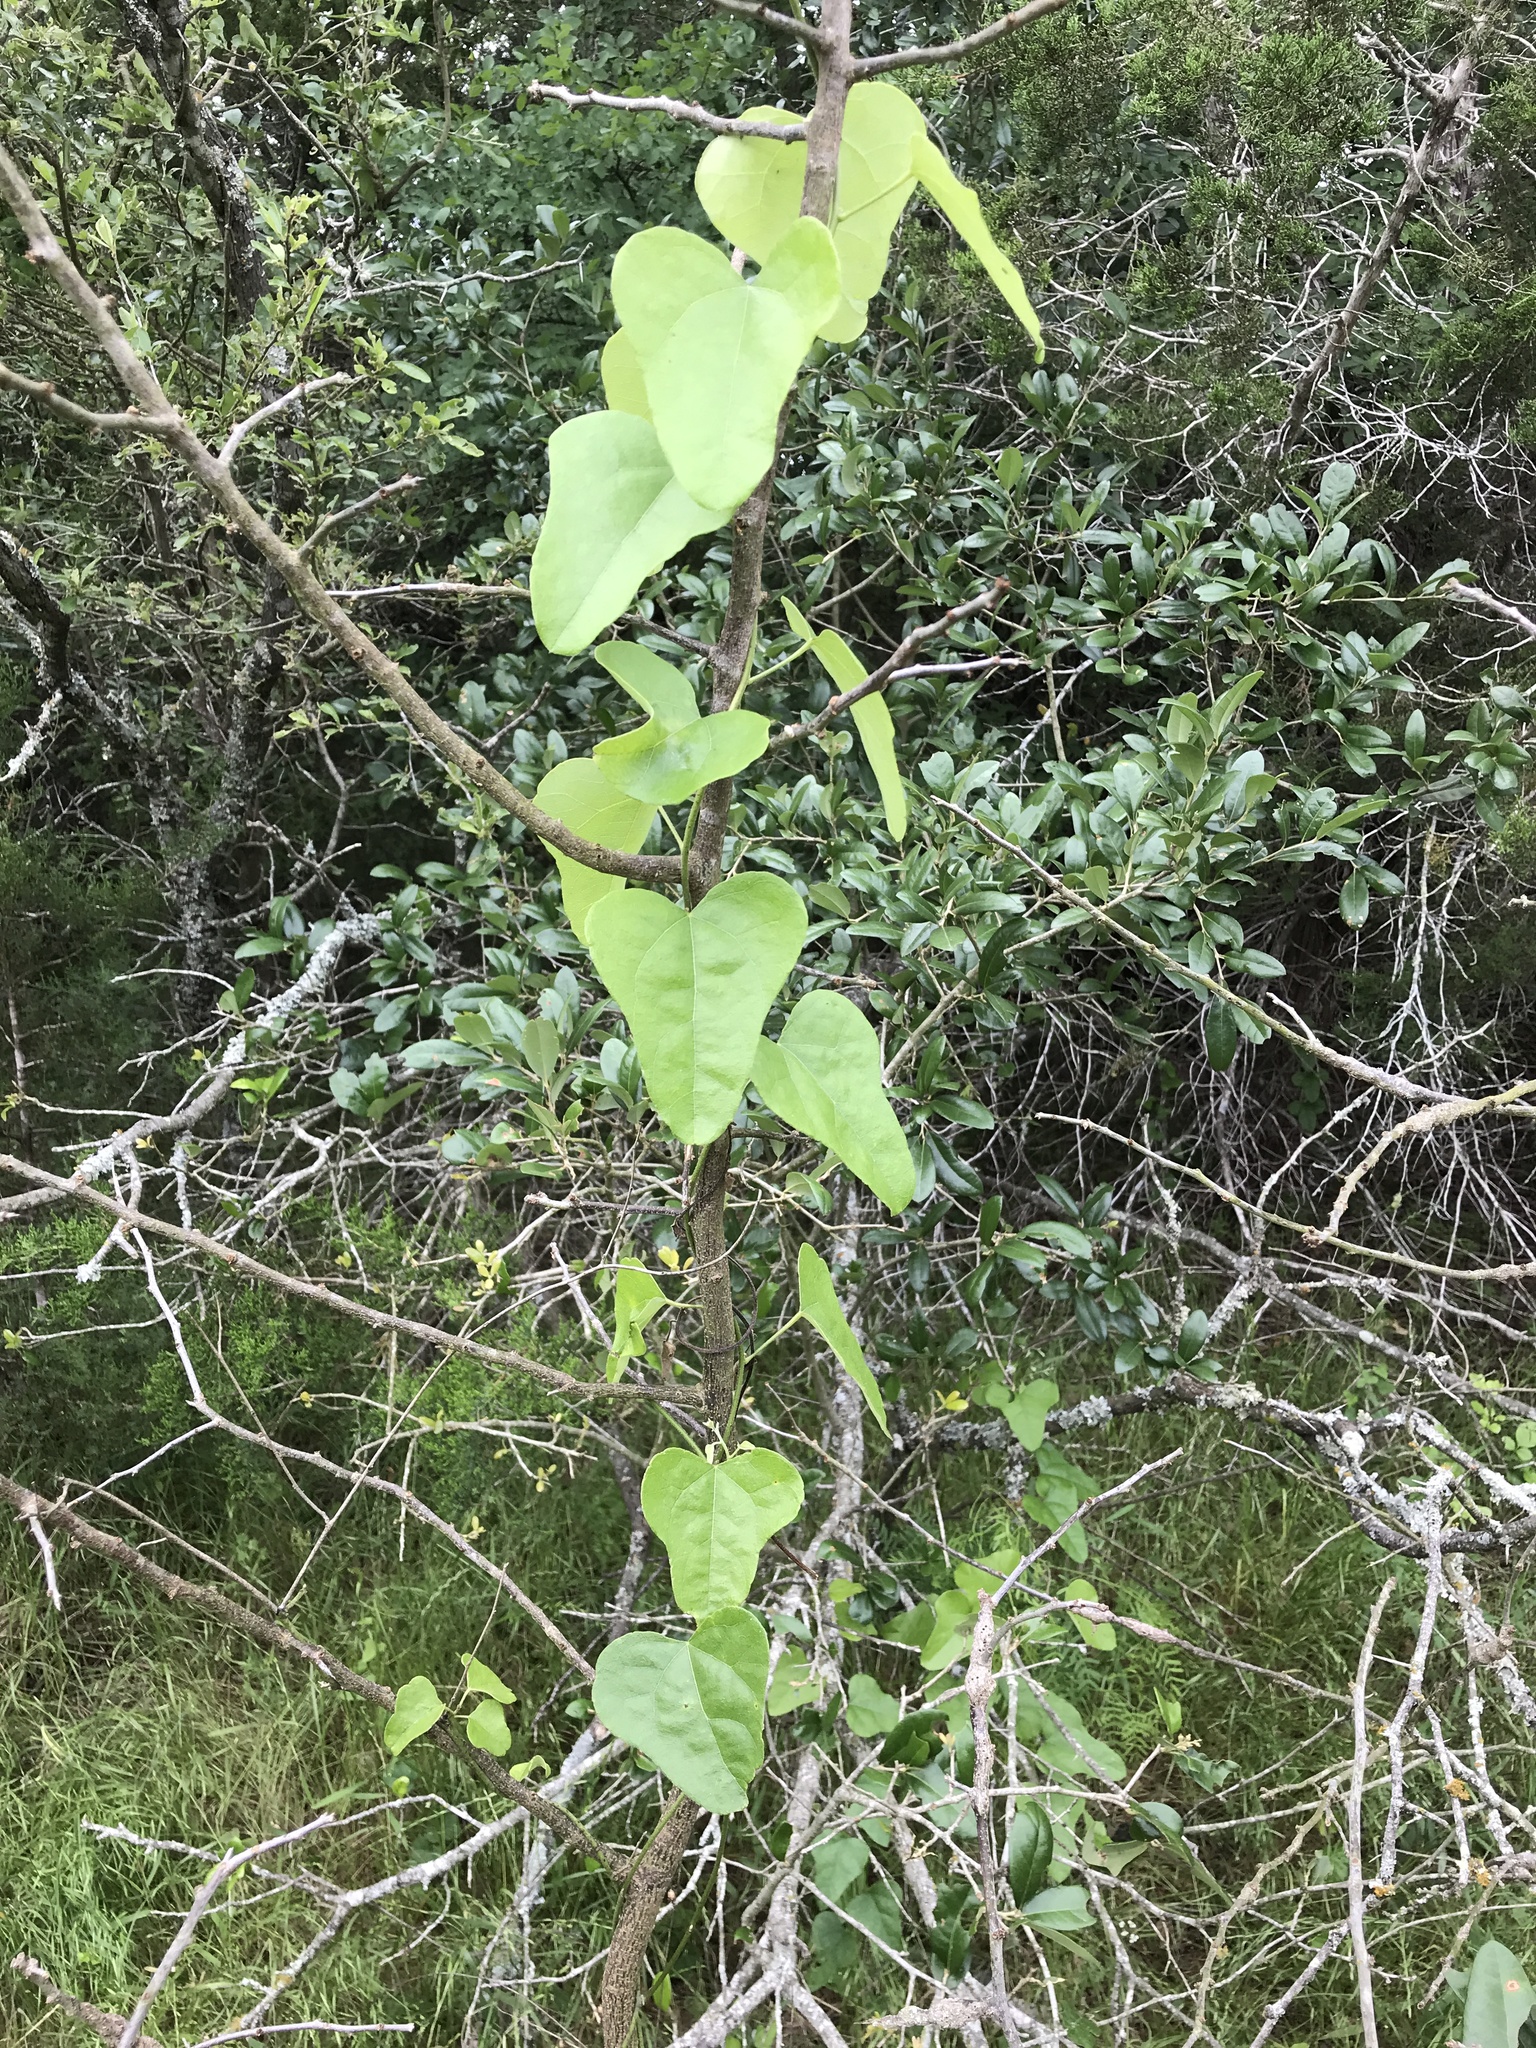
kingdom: Plantae
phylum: Tracheophyta
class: Magnoliopsida
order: Ranunculales
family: Menispermaceae
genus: Cocculus
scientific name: Cocculus carolinus
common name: Carolina moonseed
